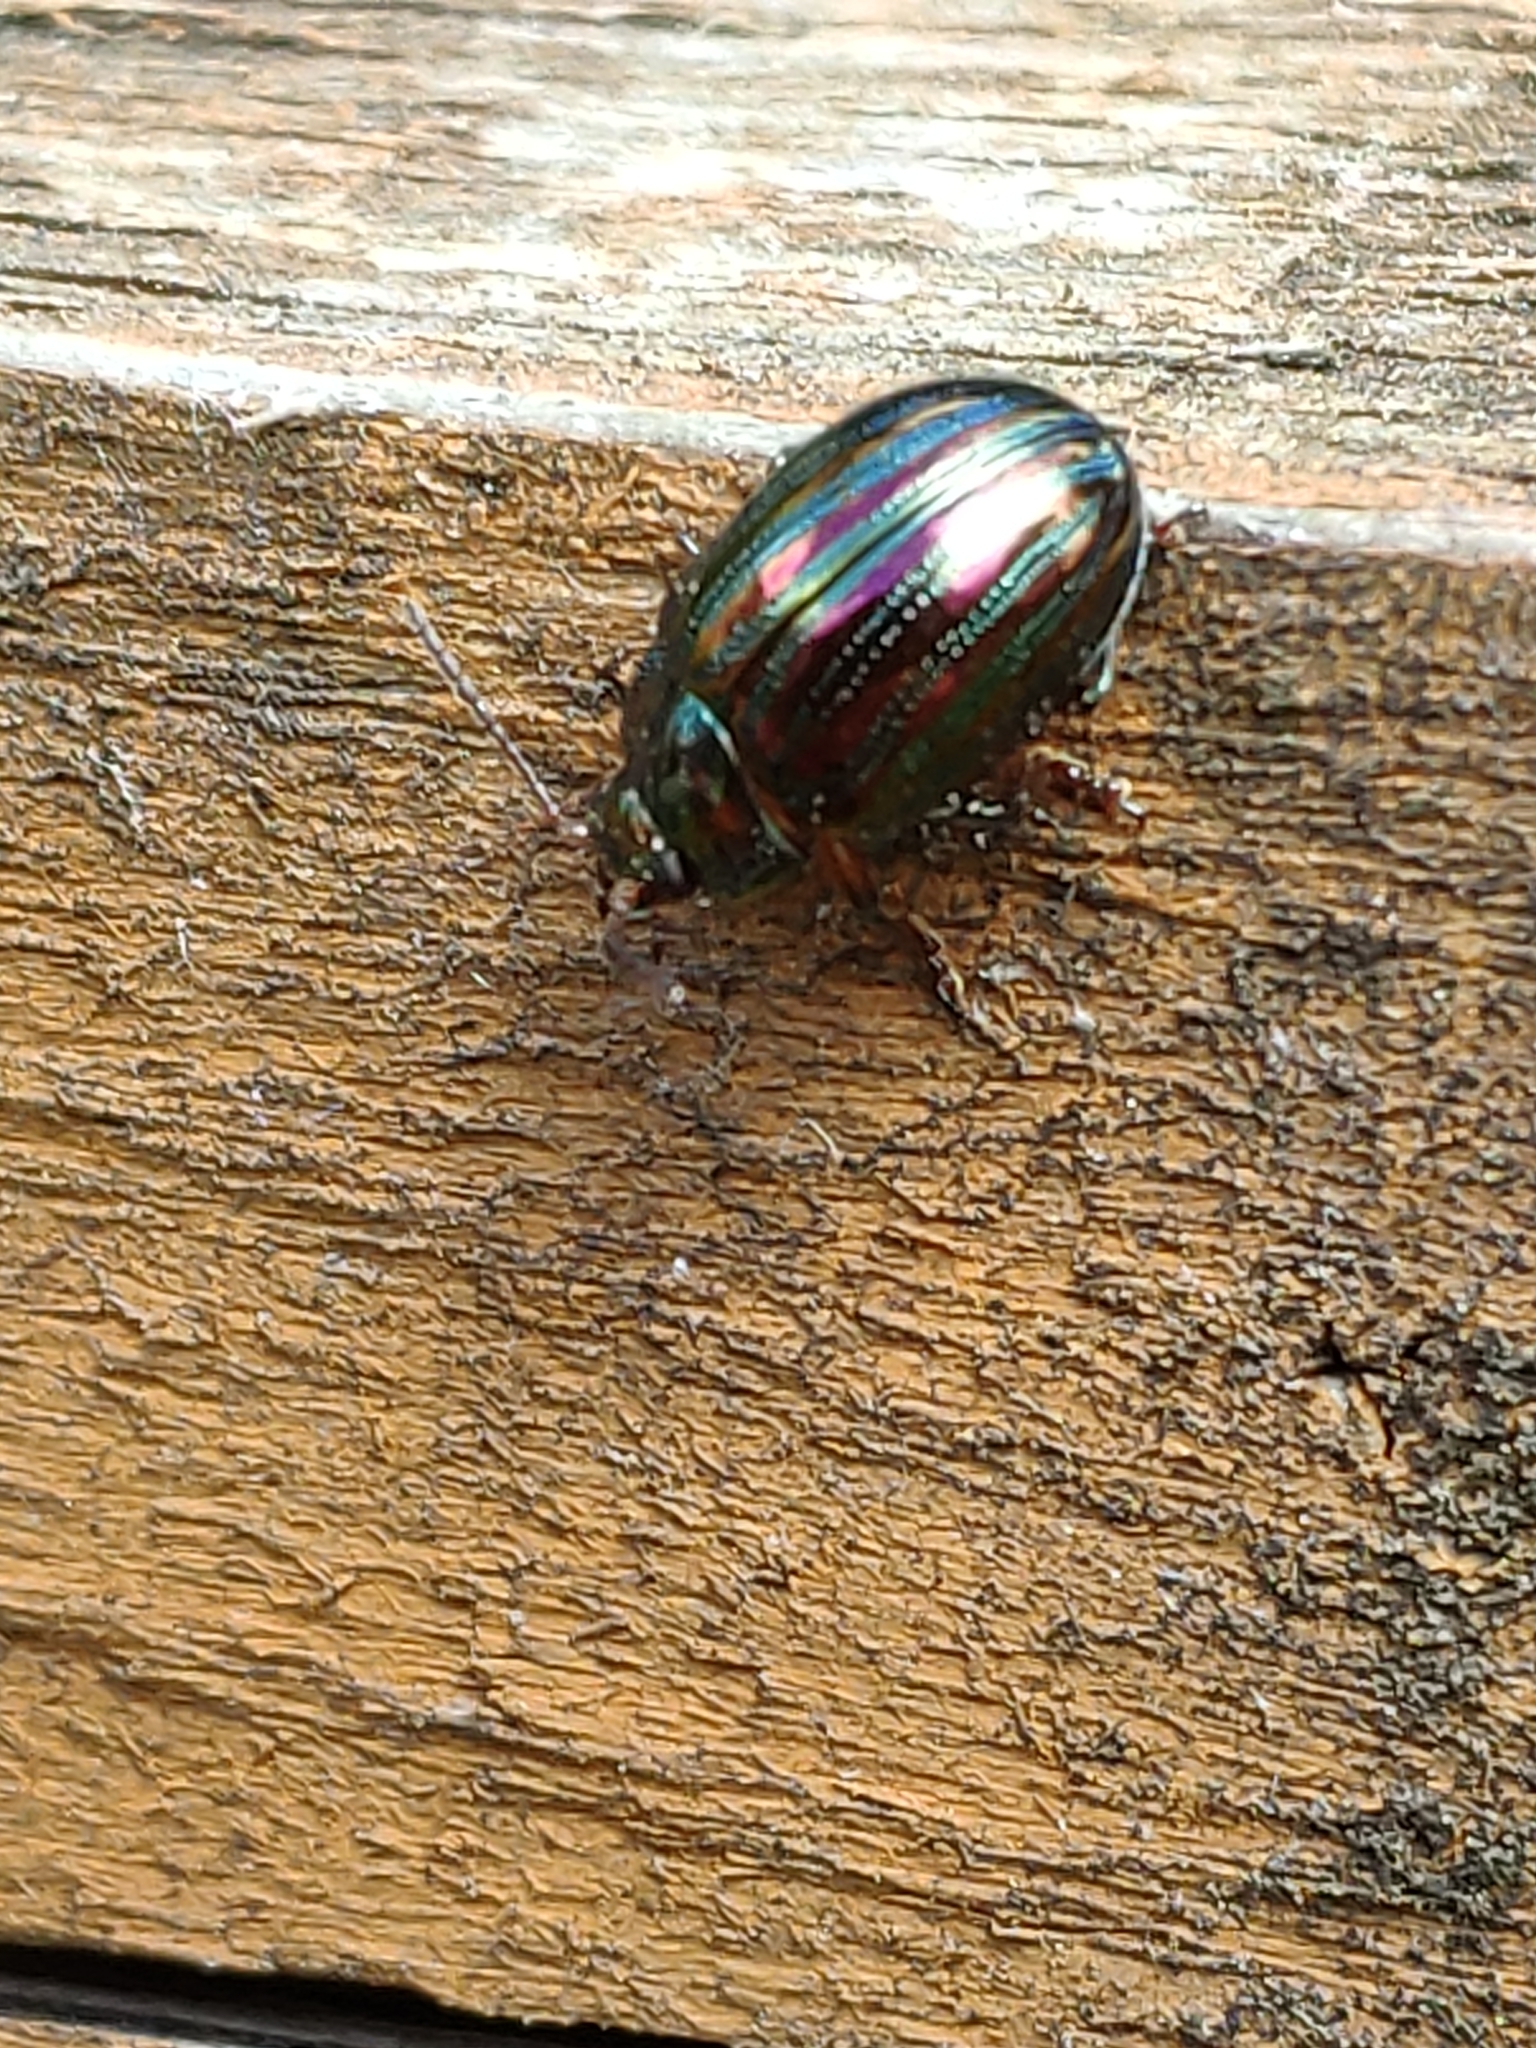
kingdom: Animalia
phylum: Arthropoda
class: Insecta
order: Coleoptera
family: Chrysomelidae
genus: Chrysolina
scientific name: Chrysolina americana
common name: Rosemary beetle
